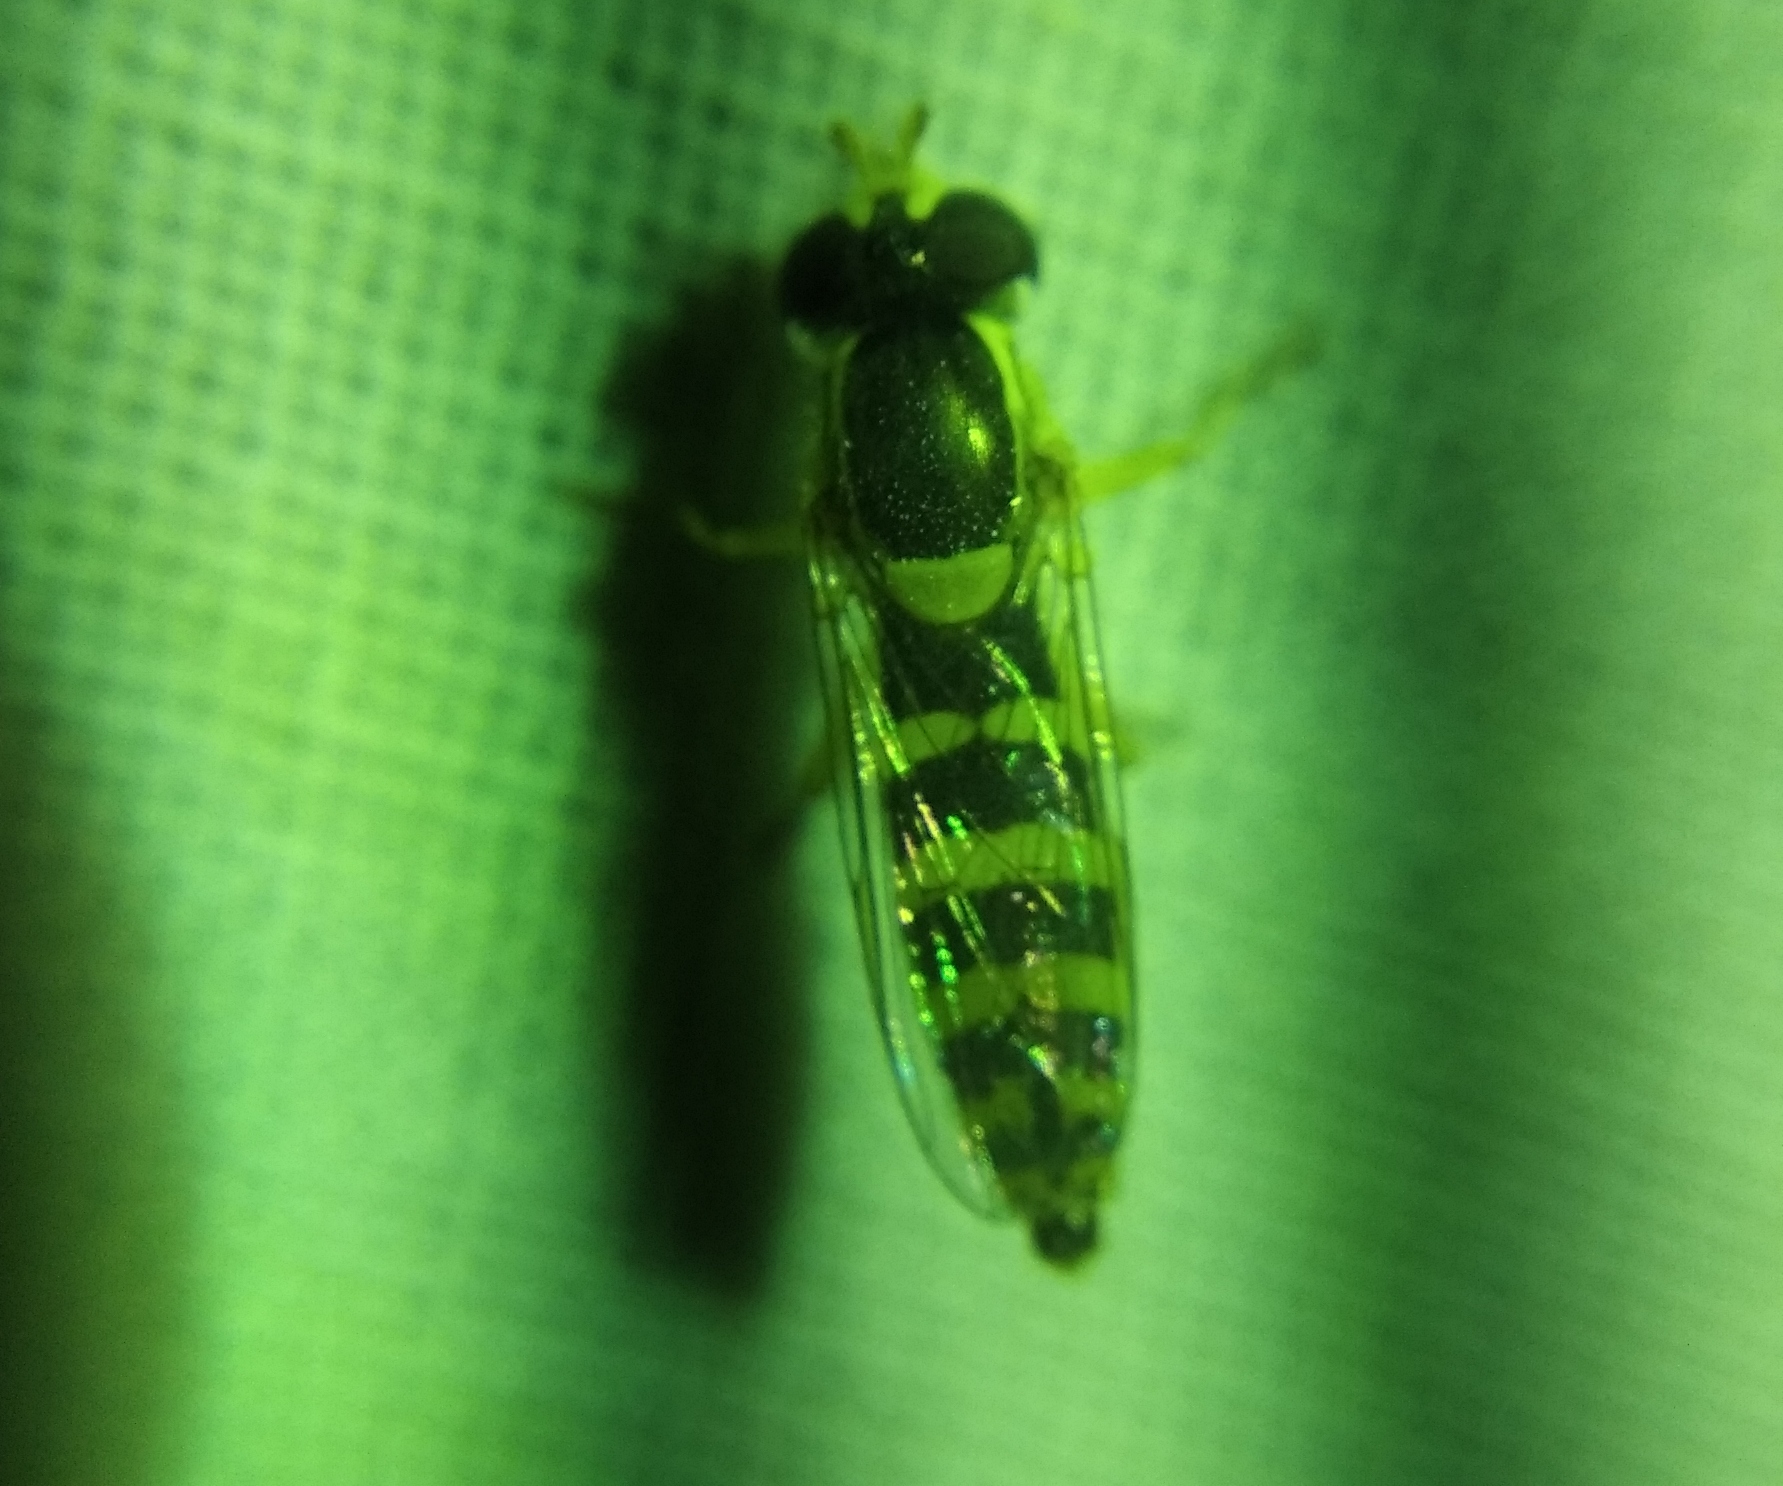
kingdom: Animalia
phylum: Arthropoda
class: Insecta
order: Diptera
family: Syrphidae
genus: Sphaerophoria
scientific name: Sphaerophoria
